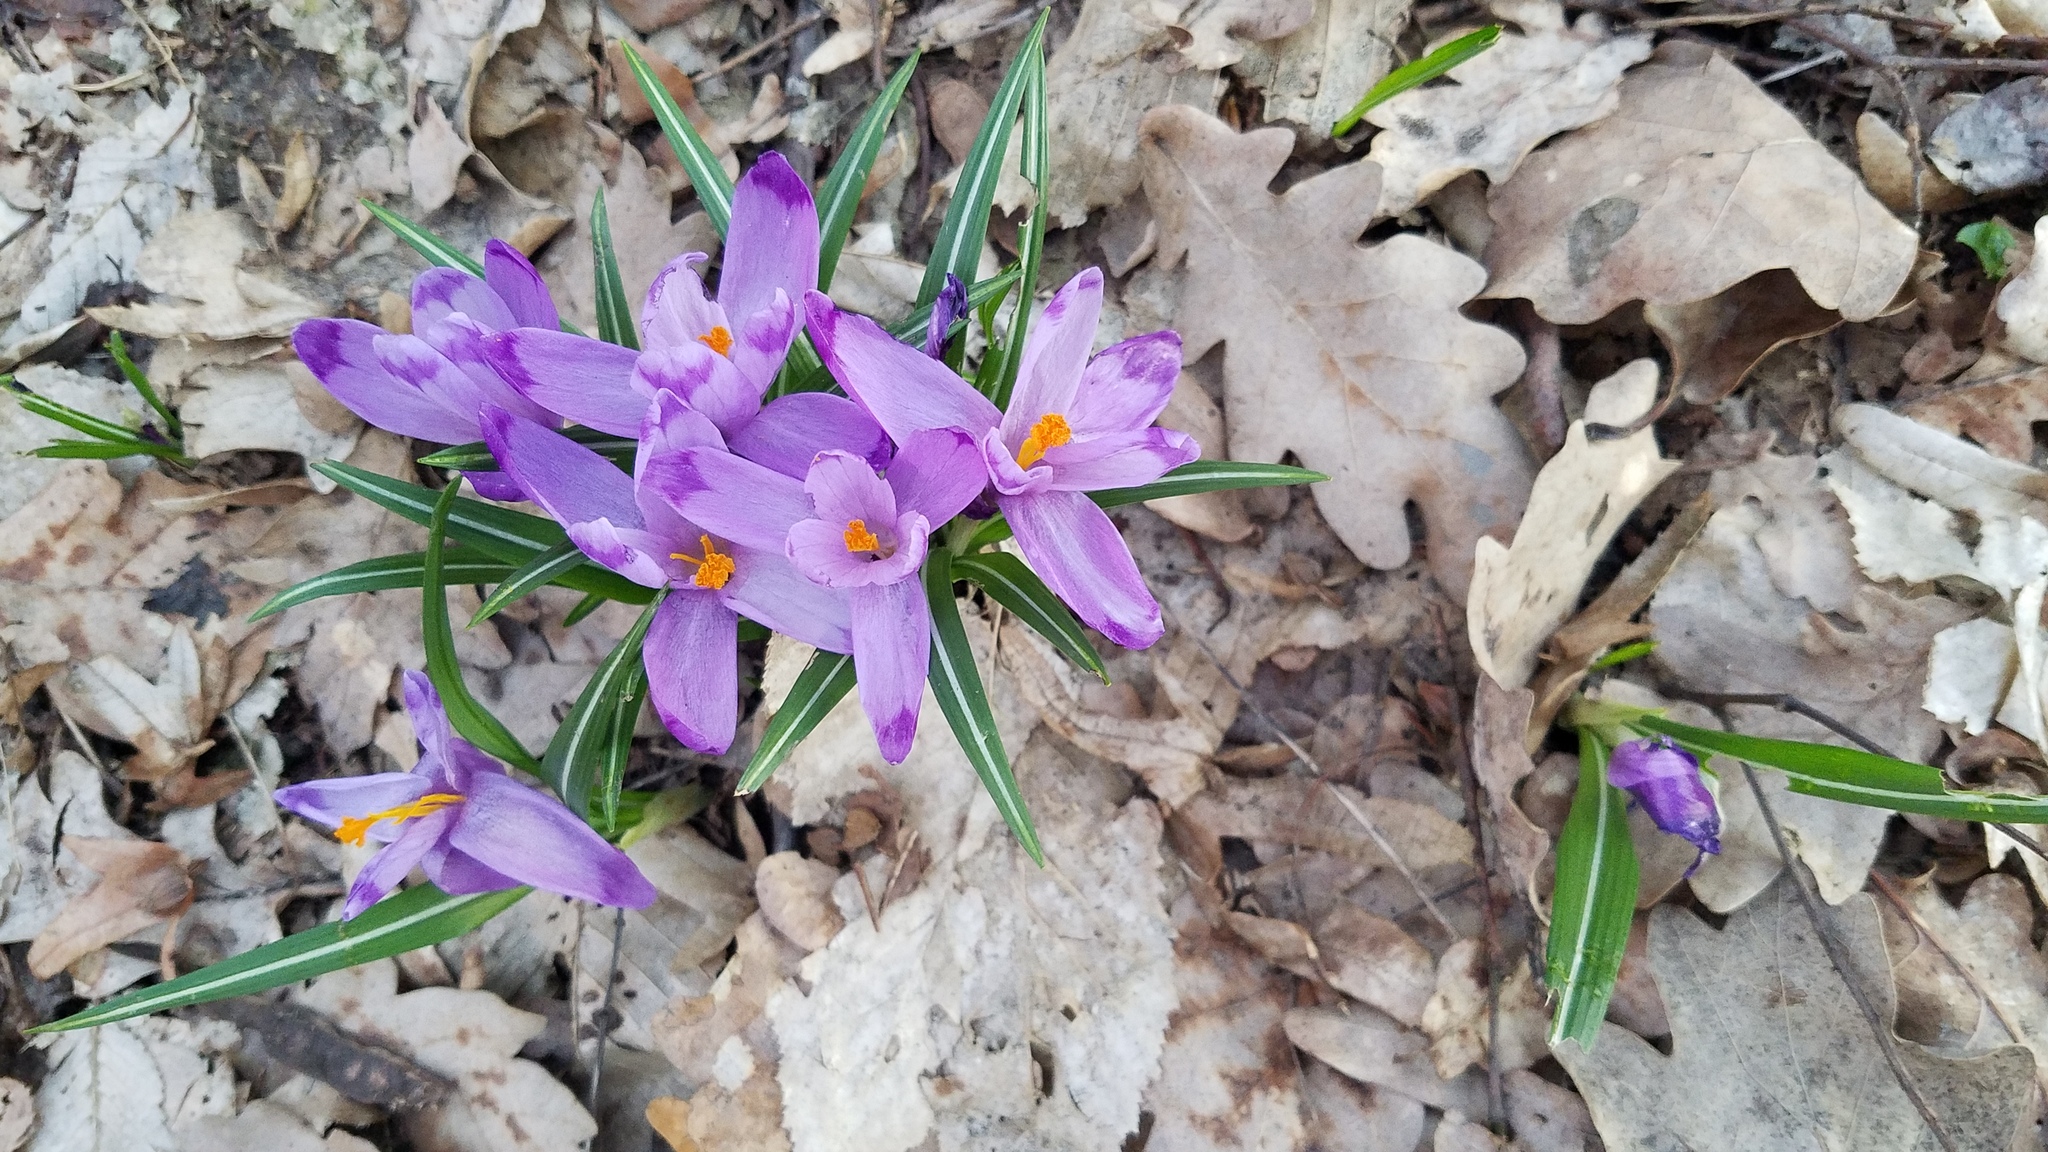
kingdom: Plantae
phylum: Tracheophyta
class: Liliopsida
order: Asparagales
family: Iridaceae
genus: Crocus
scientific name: Crocus heuffelianus
